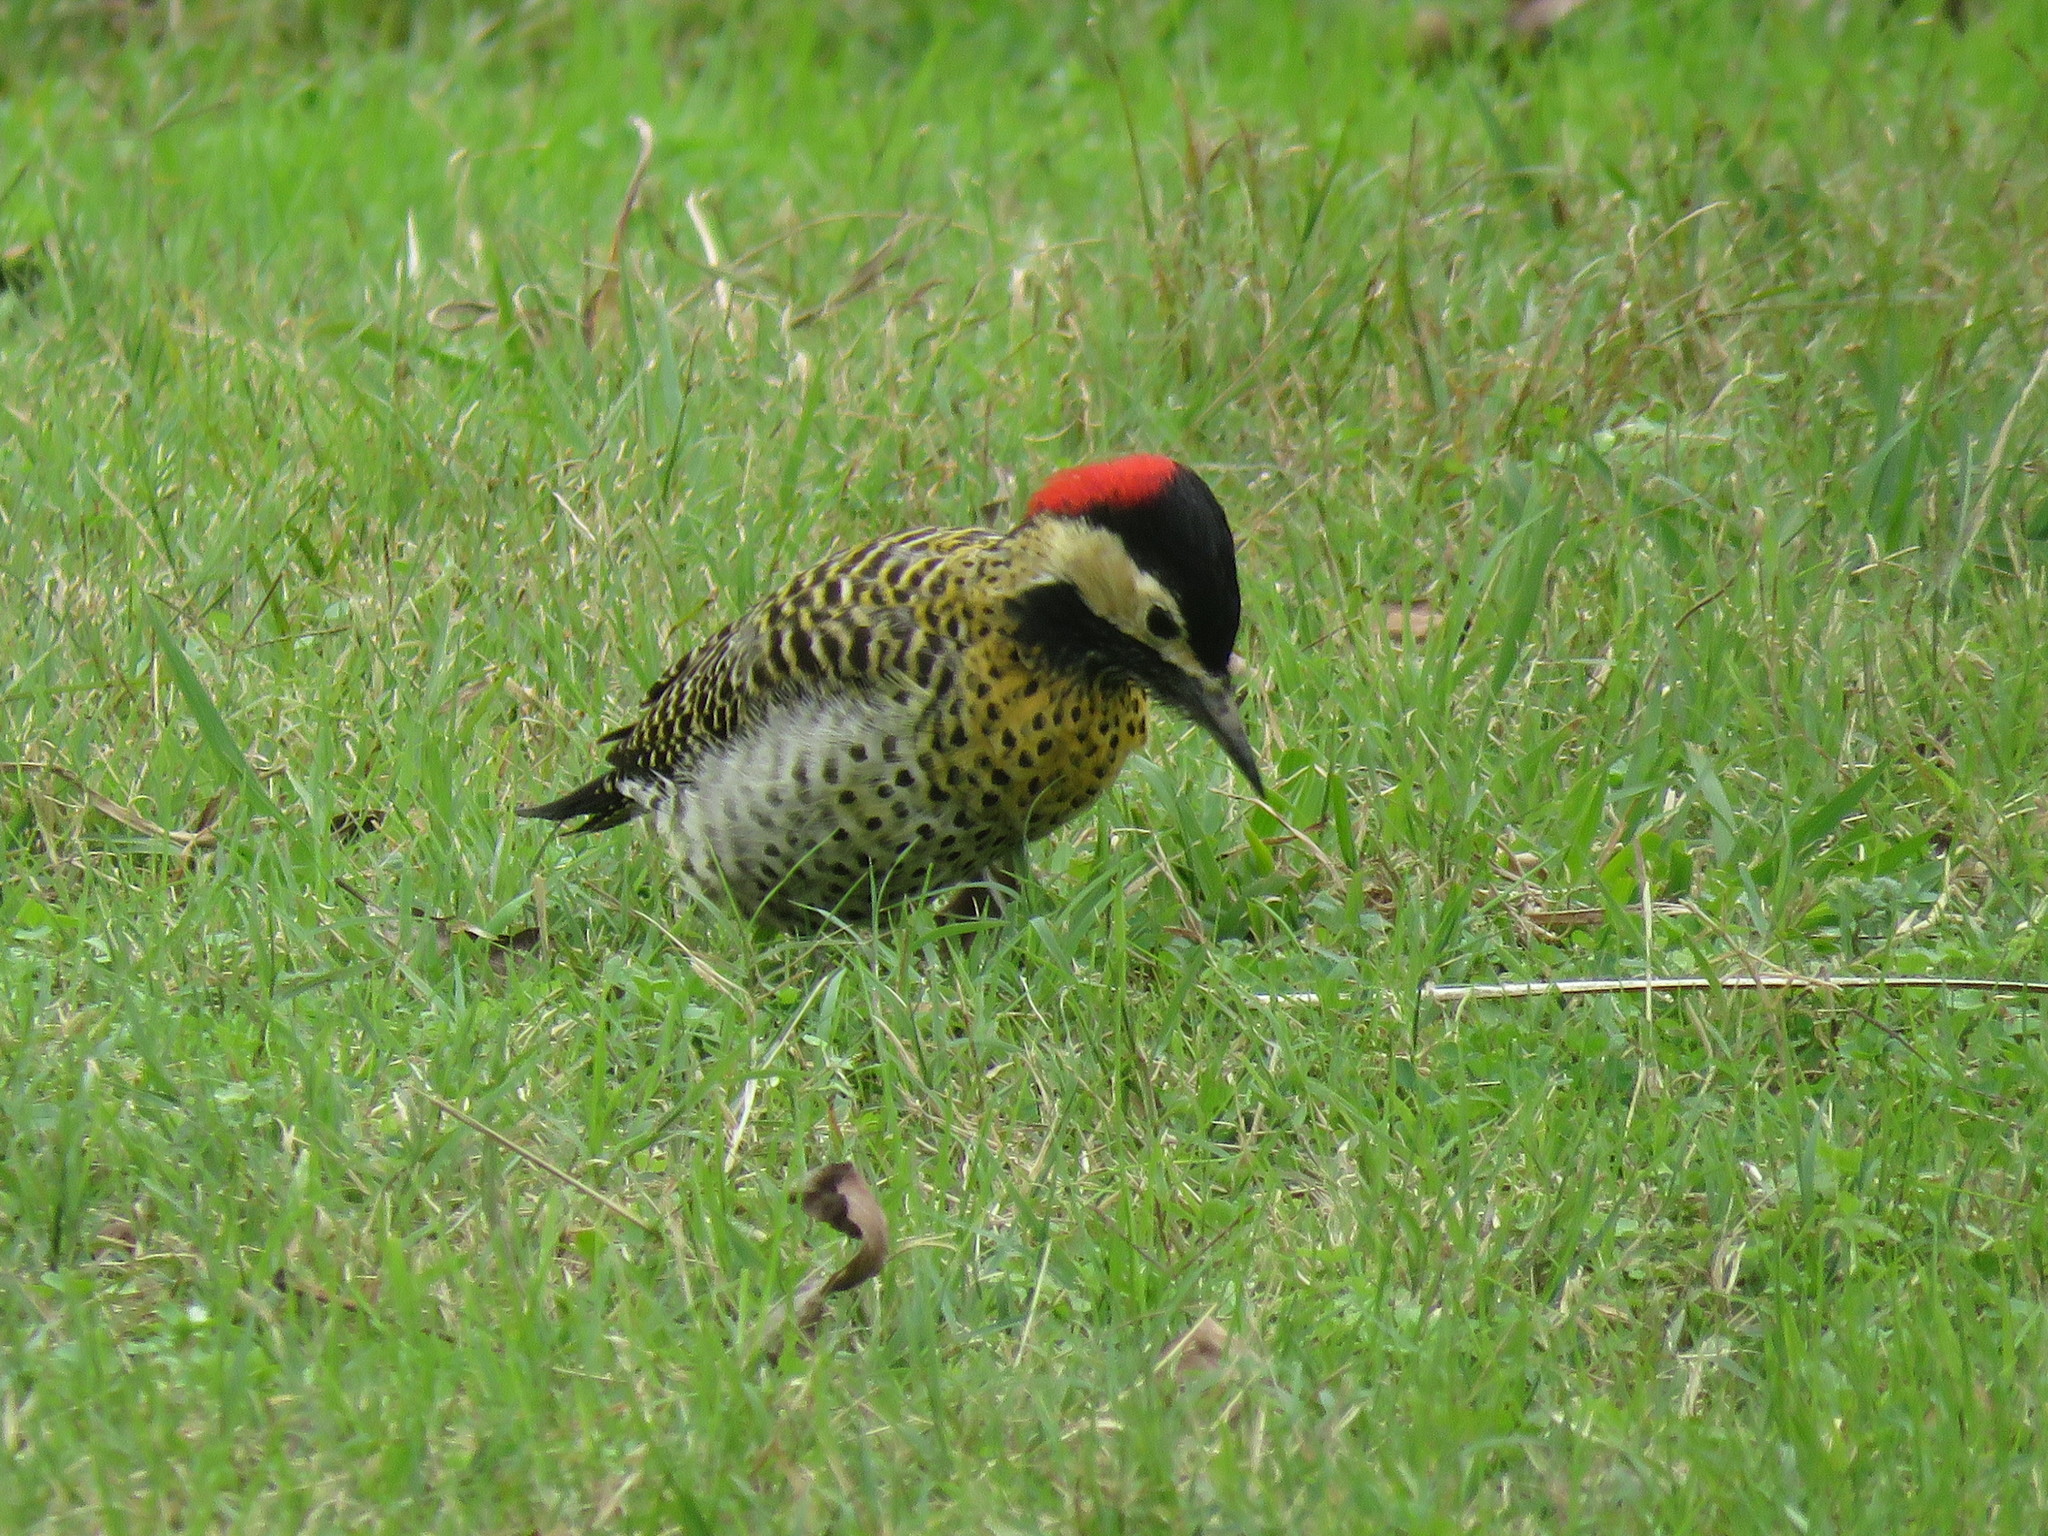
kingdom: Animalia
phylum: Chordata
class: Aves
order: Piciformes
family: Picidae
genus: Colaptes
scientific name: Colaptes melanochloros
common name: Green-barred woodpecker
